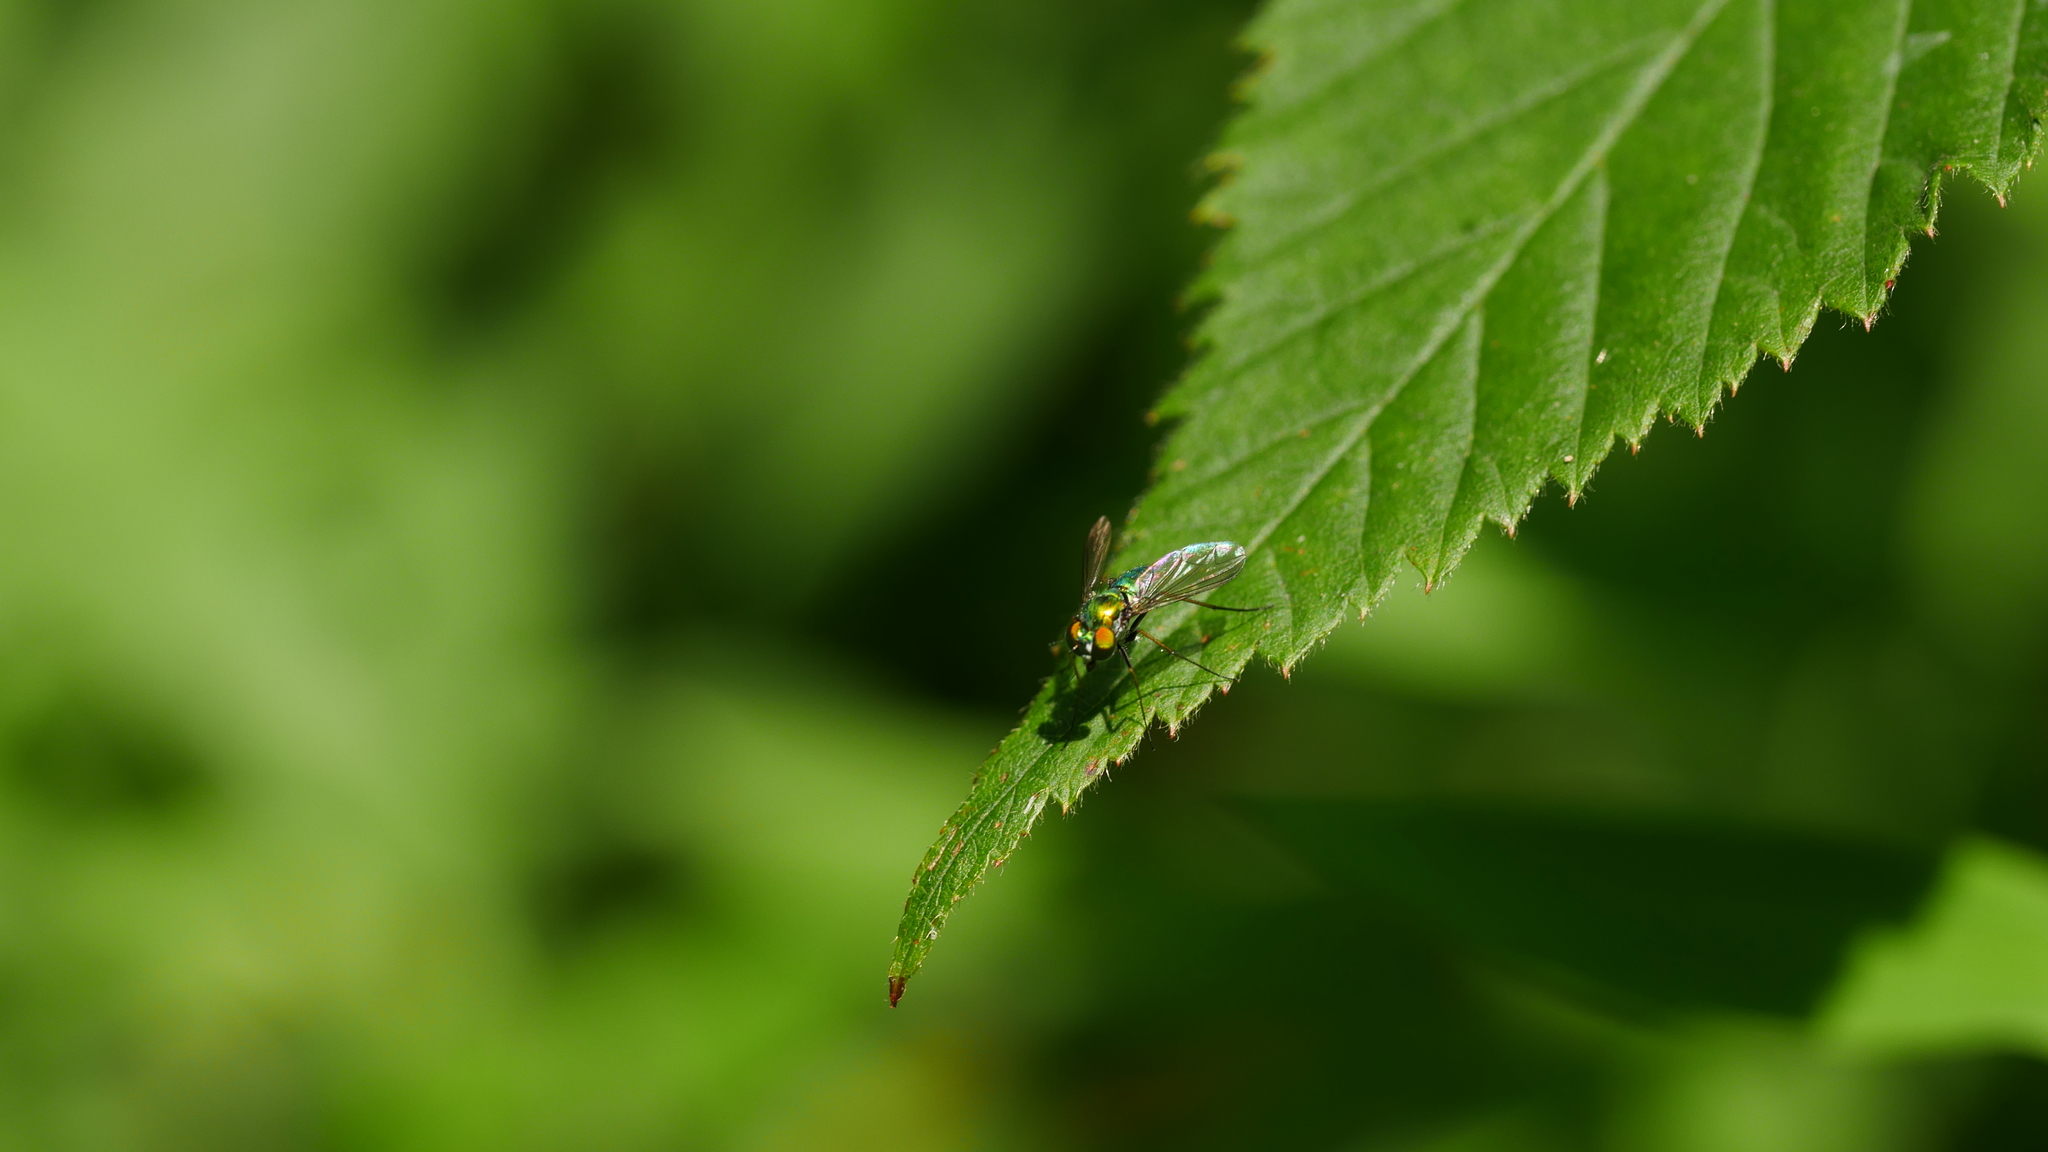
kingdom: Animalia
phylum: Arthropoda
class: Insecta
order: Diptera
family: Dolichopodidae
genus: Condylostylus
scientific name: Condylostylus
